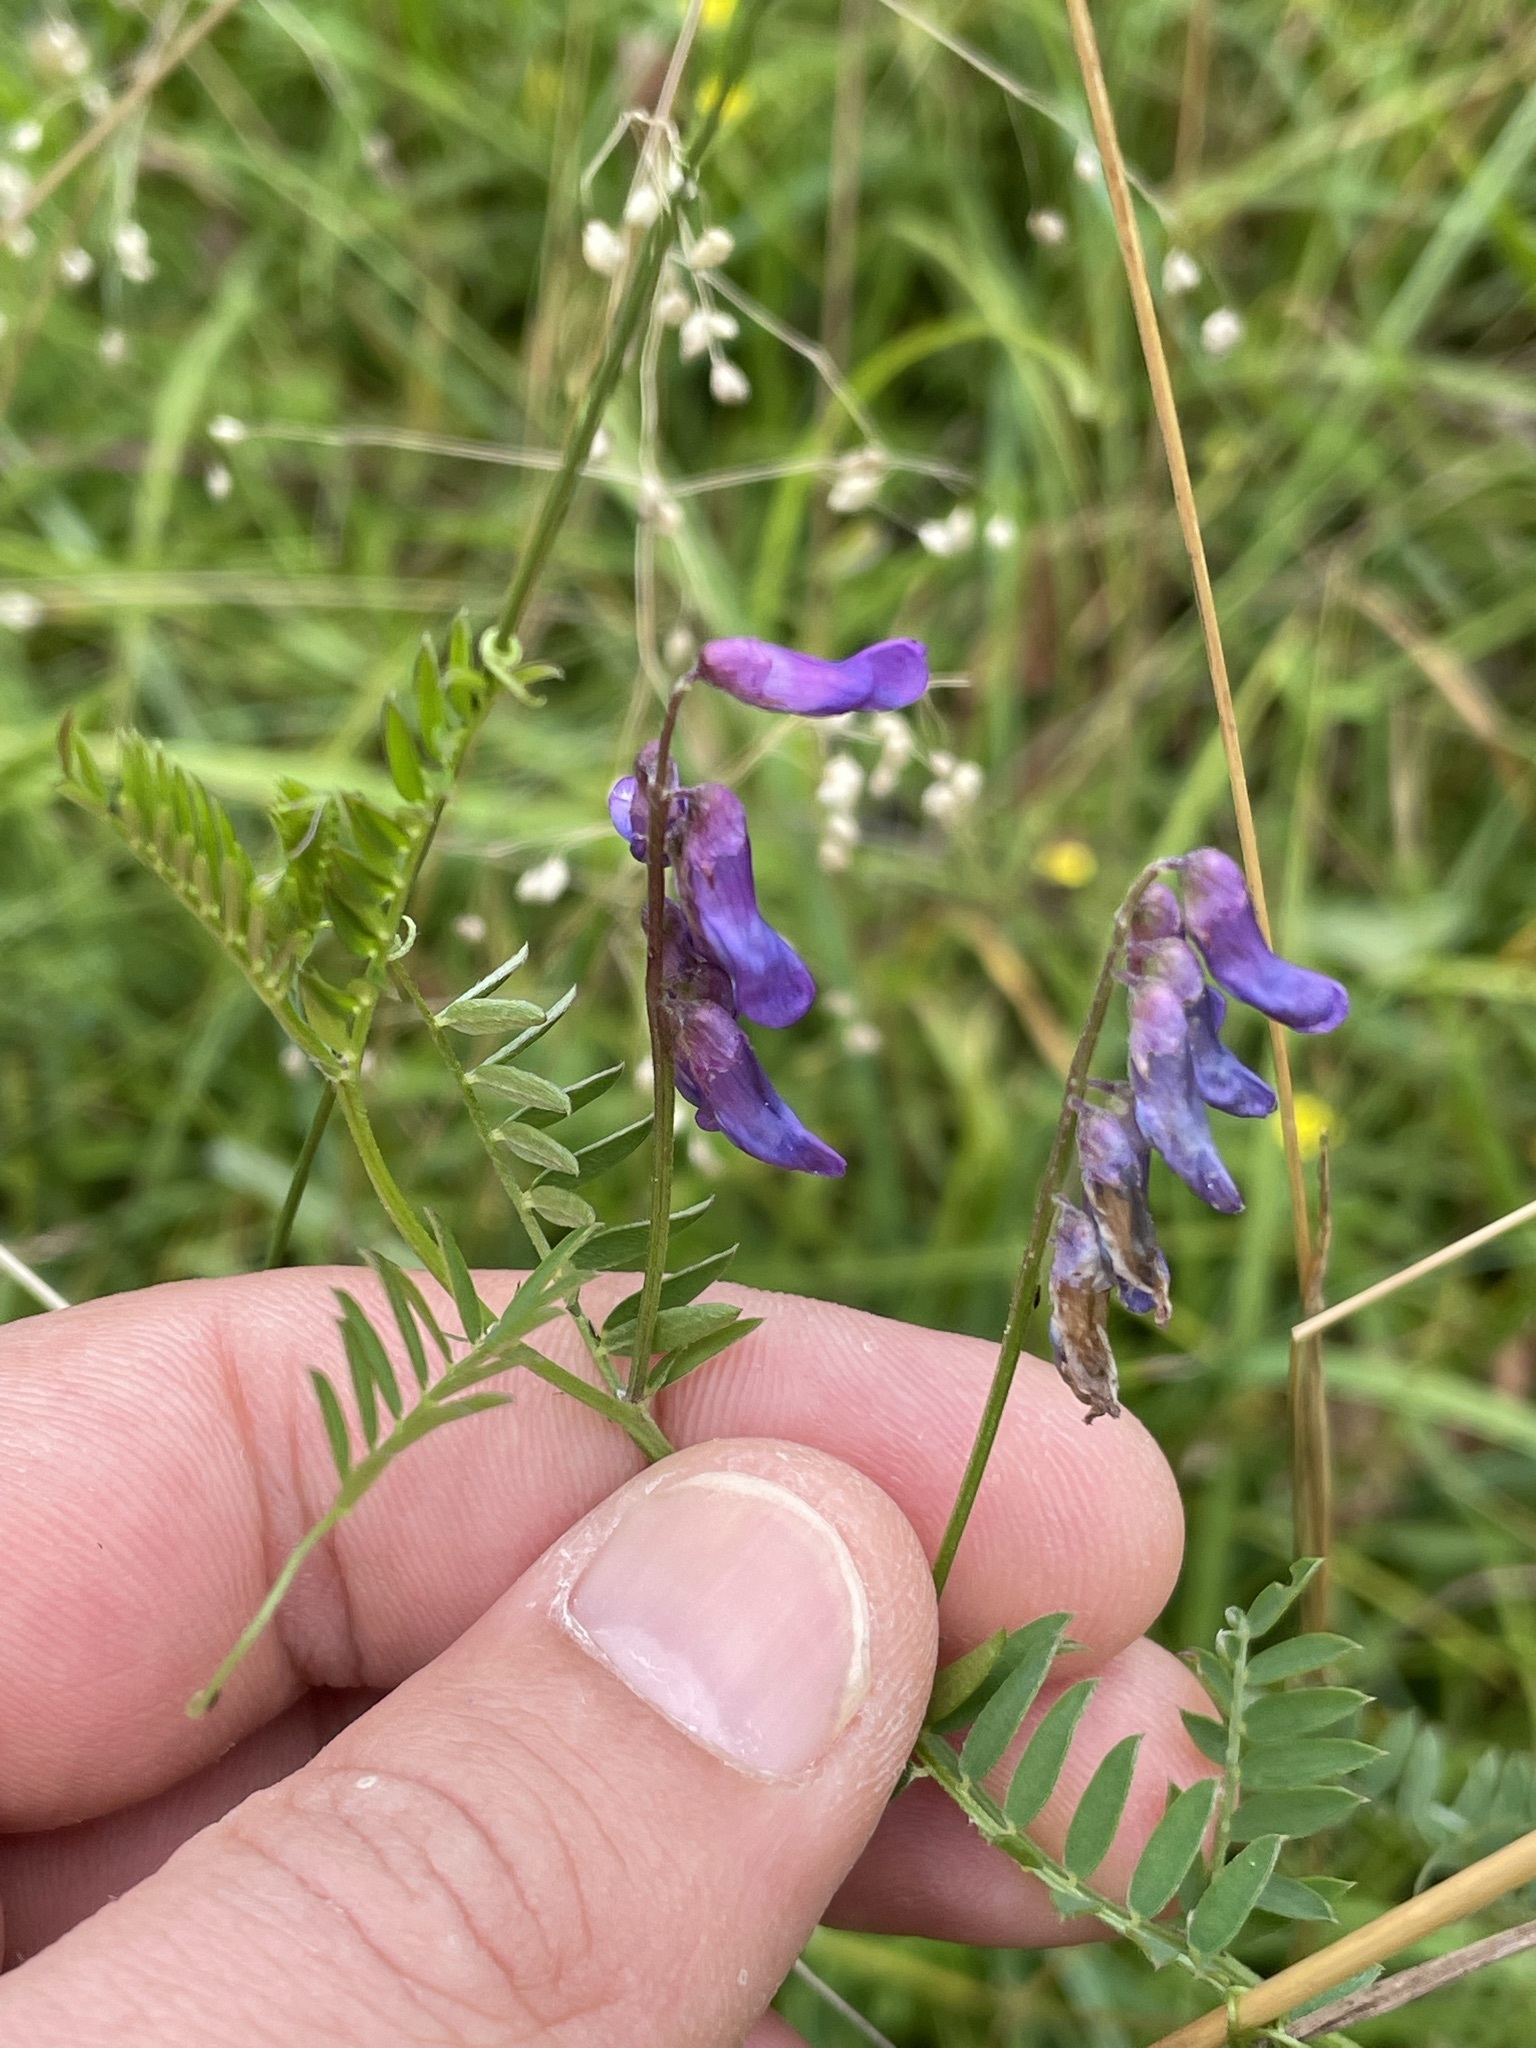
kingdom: Plantae
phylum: Tracheophyta
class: Magnoliopsida
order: Fabales
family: Fabaceae
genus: Vicia
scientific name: Vicia cracca
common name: Bird vetch
